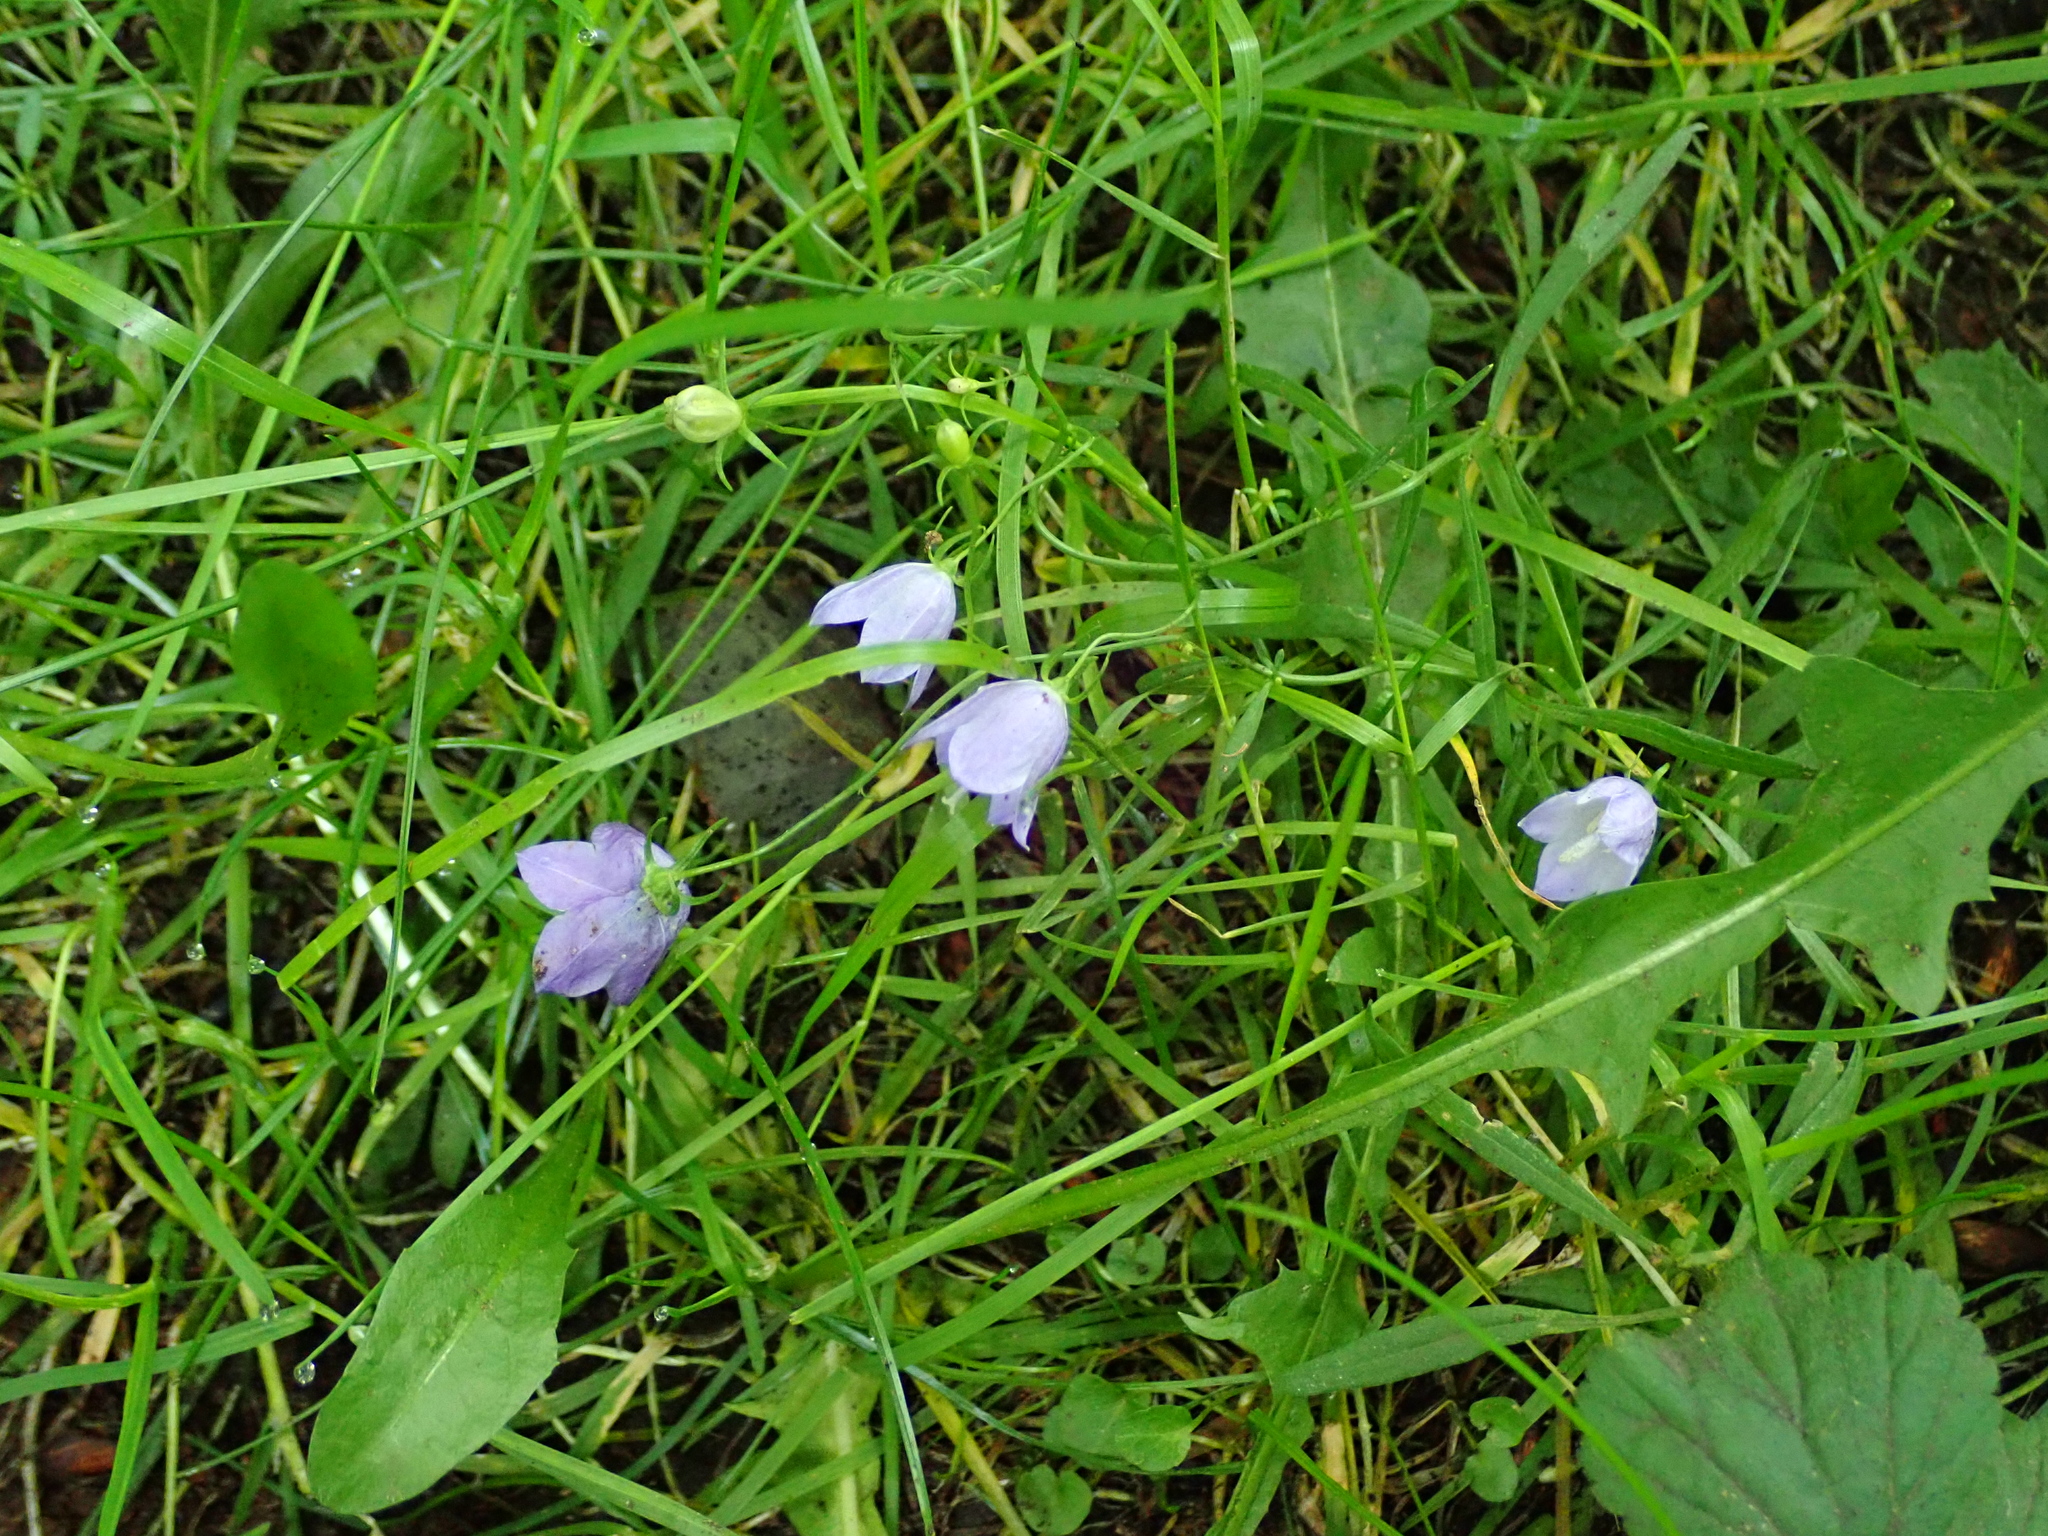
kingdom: Plantae
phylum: Tracheophyta
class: Magnoliopsida
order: Asterales
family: Campanulaceae
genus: Campanula
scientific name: Campanula rotundifolia
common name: Harebell
